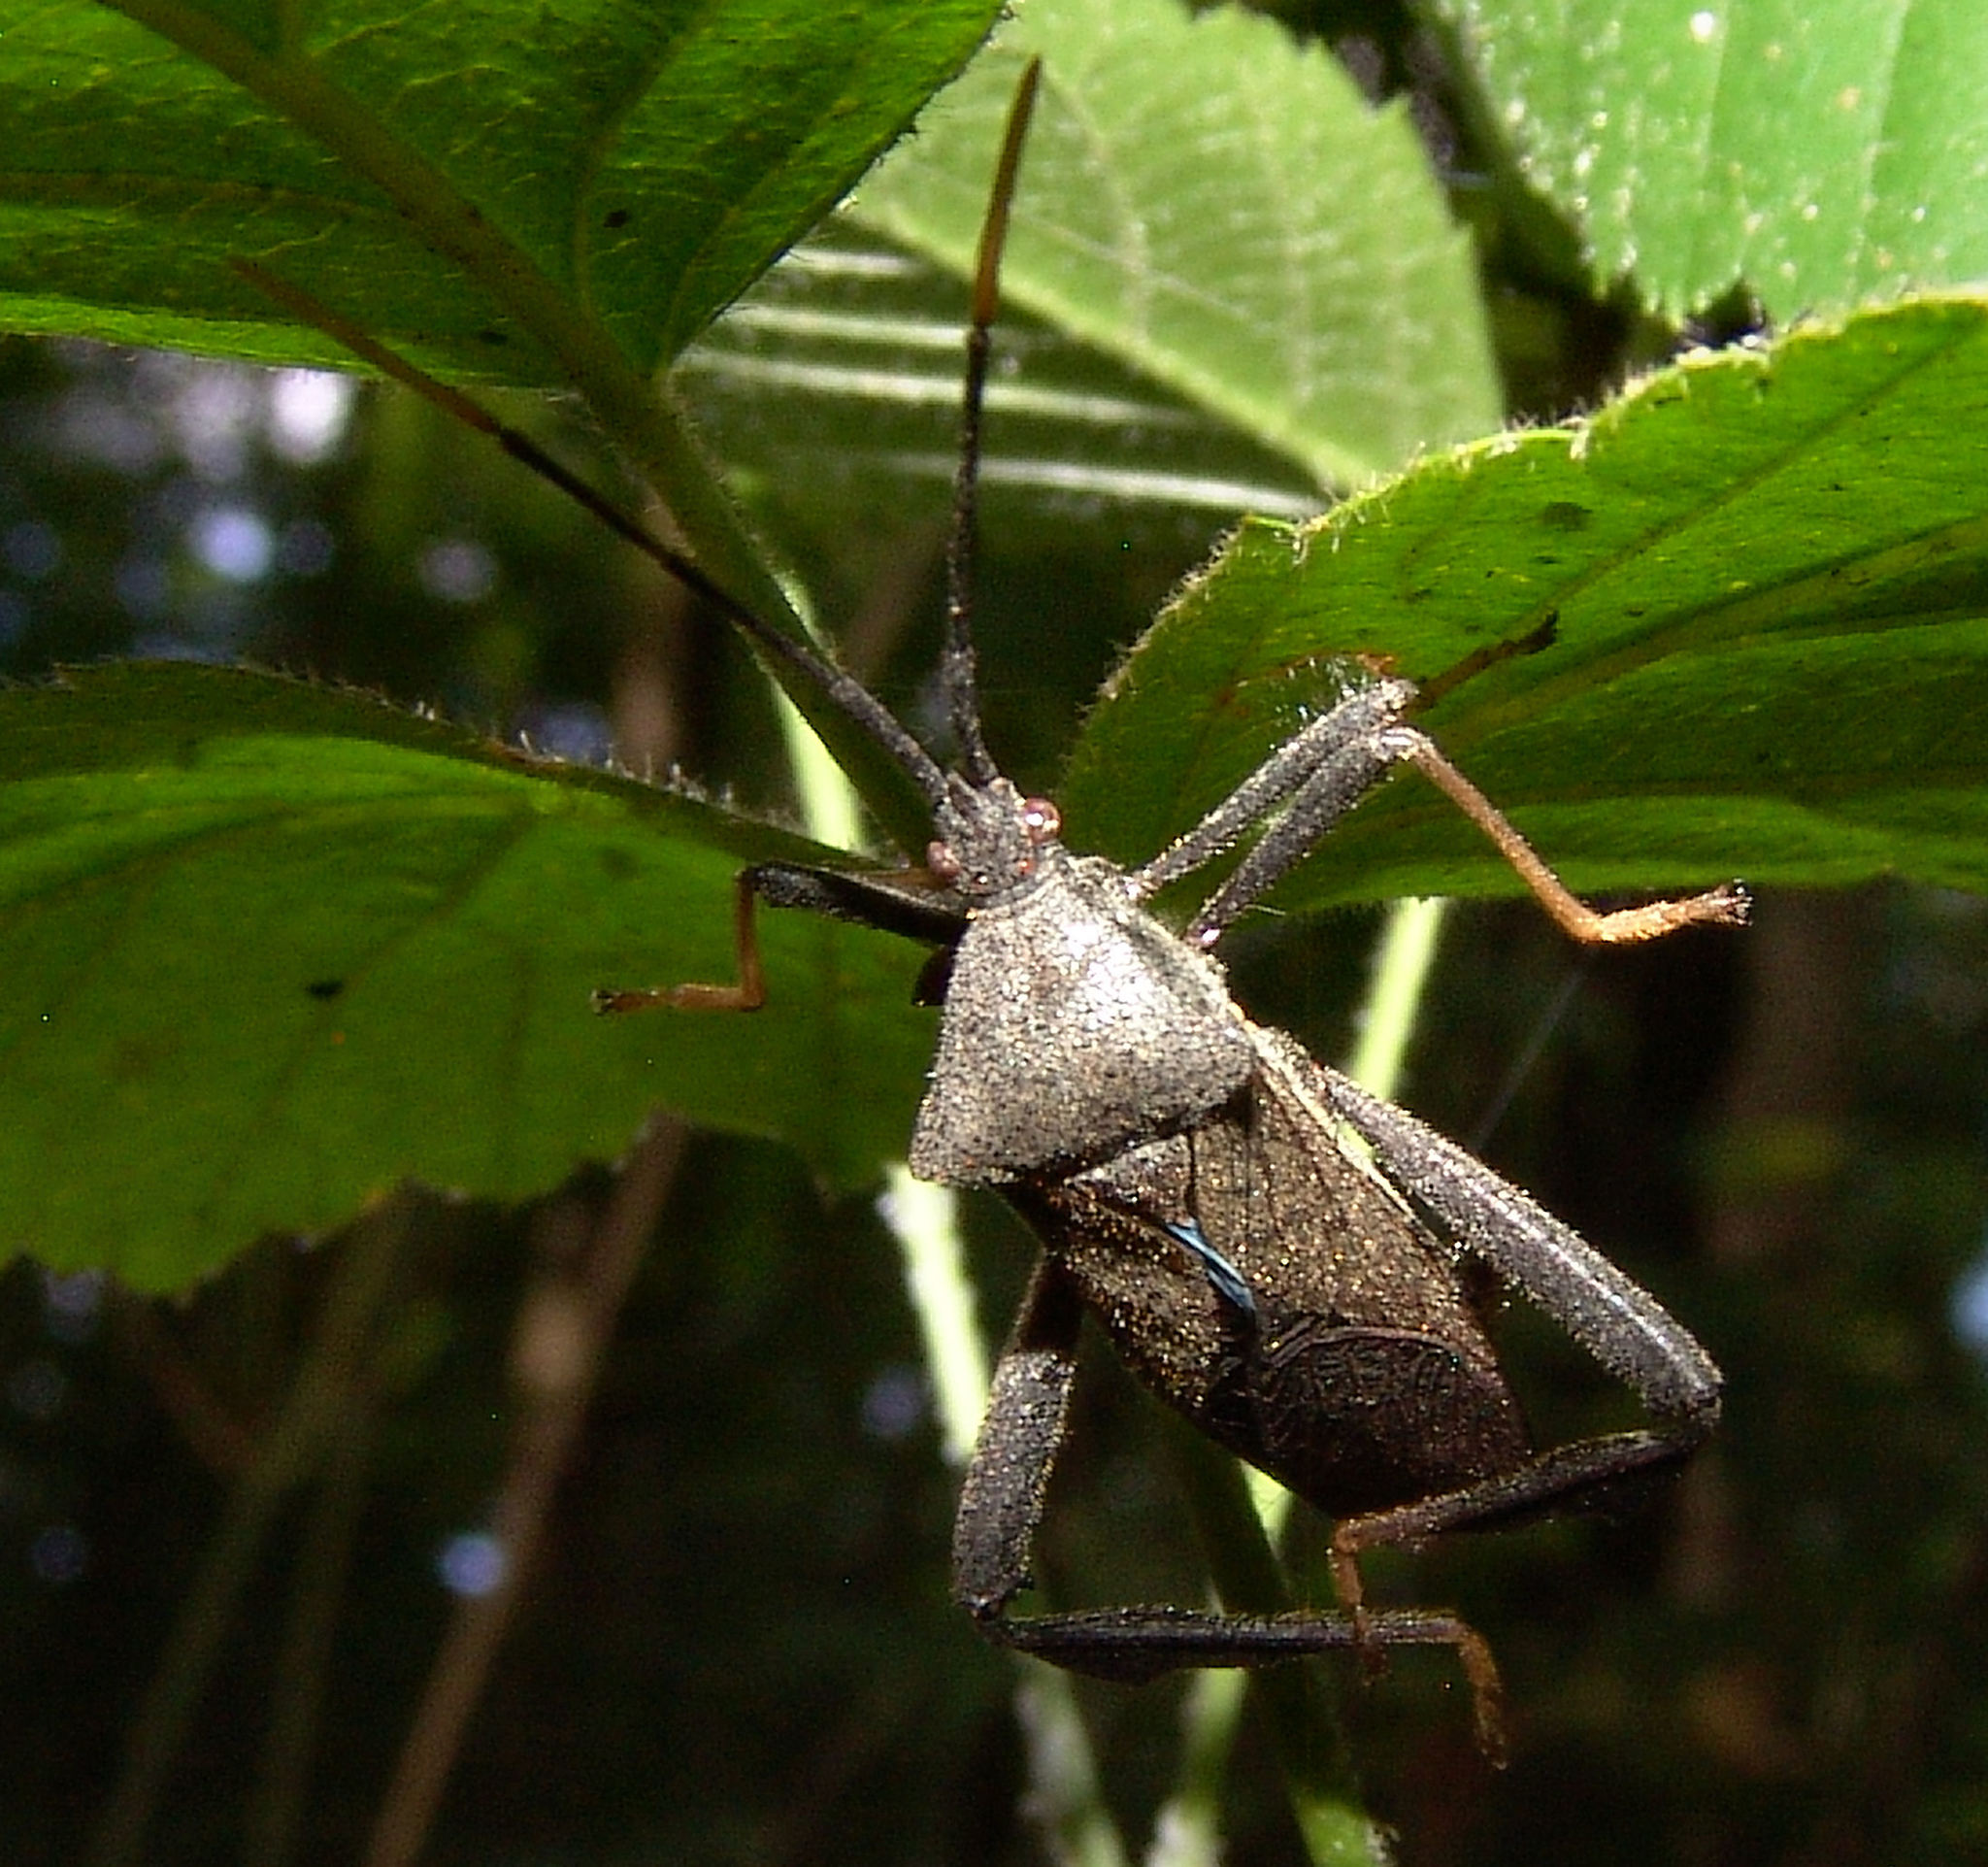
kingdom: Animalia
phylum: Arthropoda
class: Insecta
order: Hemiptera
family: Coreidae
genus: Acanthocephala
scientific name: Acanthocephala terminalis
